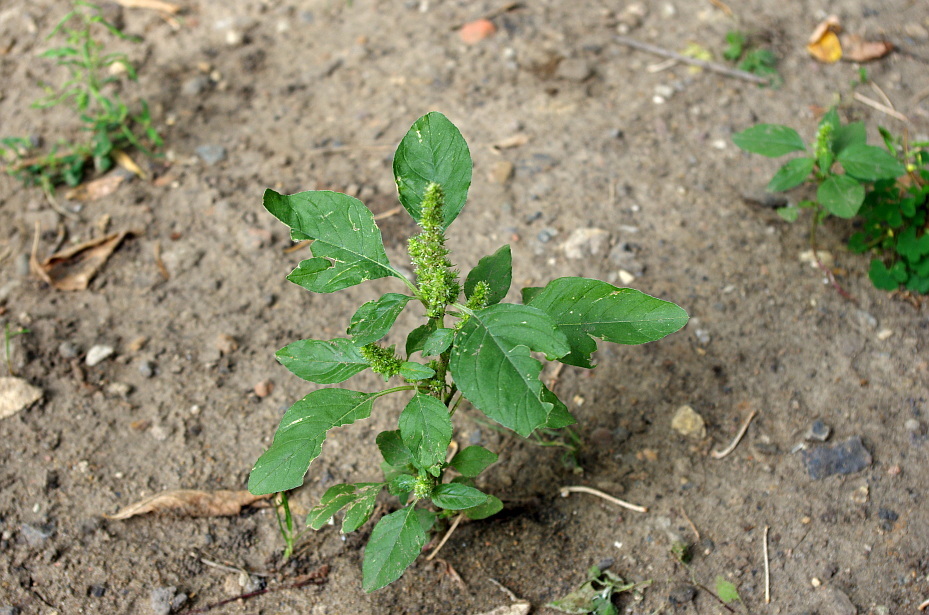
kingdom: Plantae
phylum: Tracheophyta
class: Magnoliopsida
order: Caryophyllales
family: Amaranthaceae
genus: Amaranthus
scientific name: Amaranthus retroflexus
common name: Redroot amaranth
